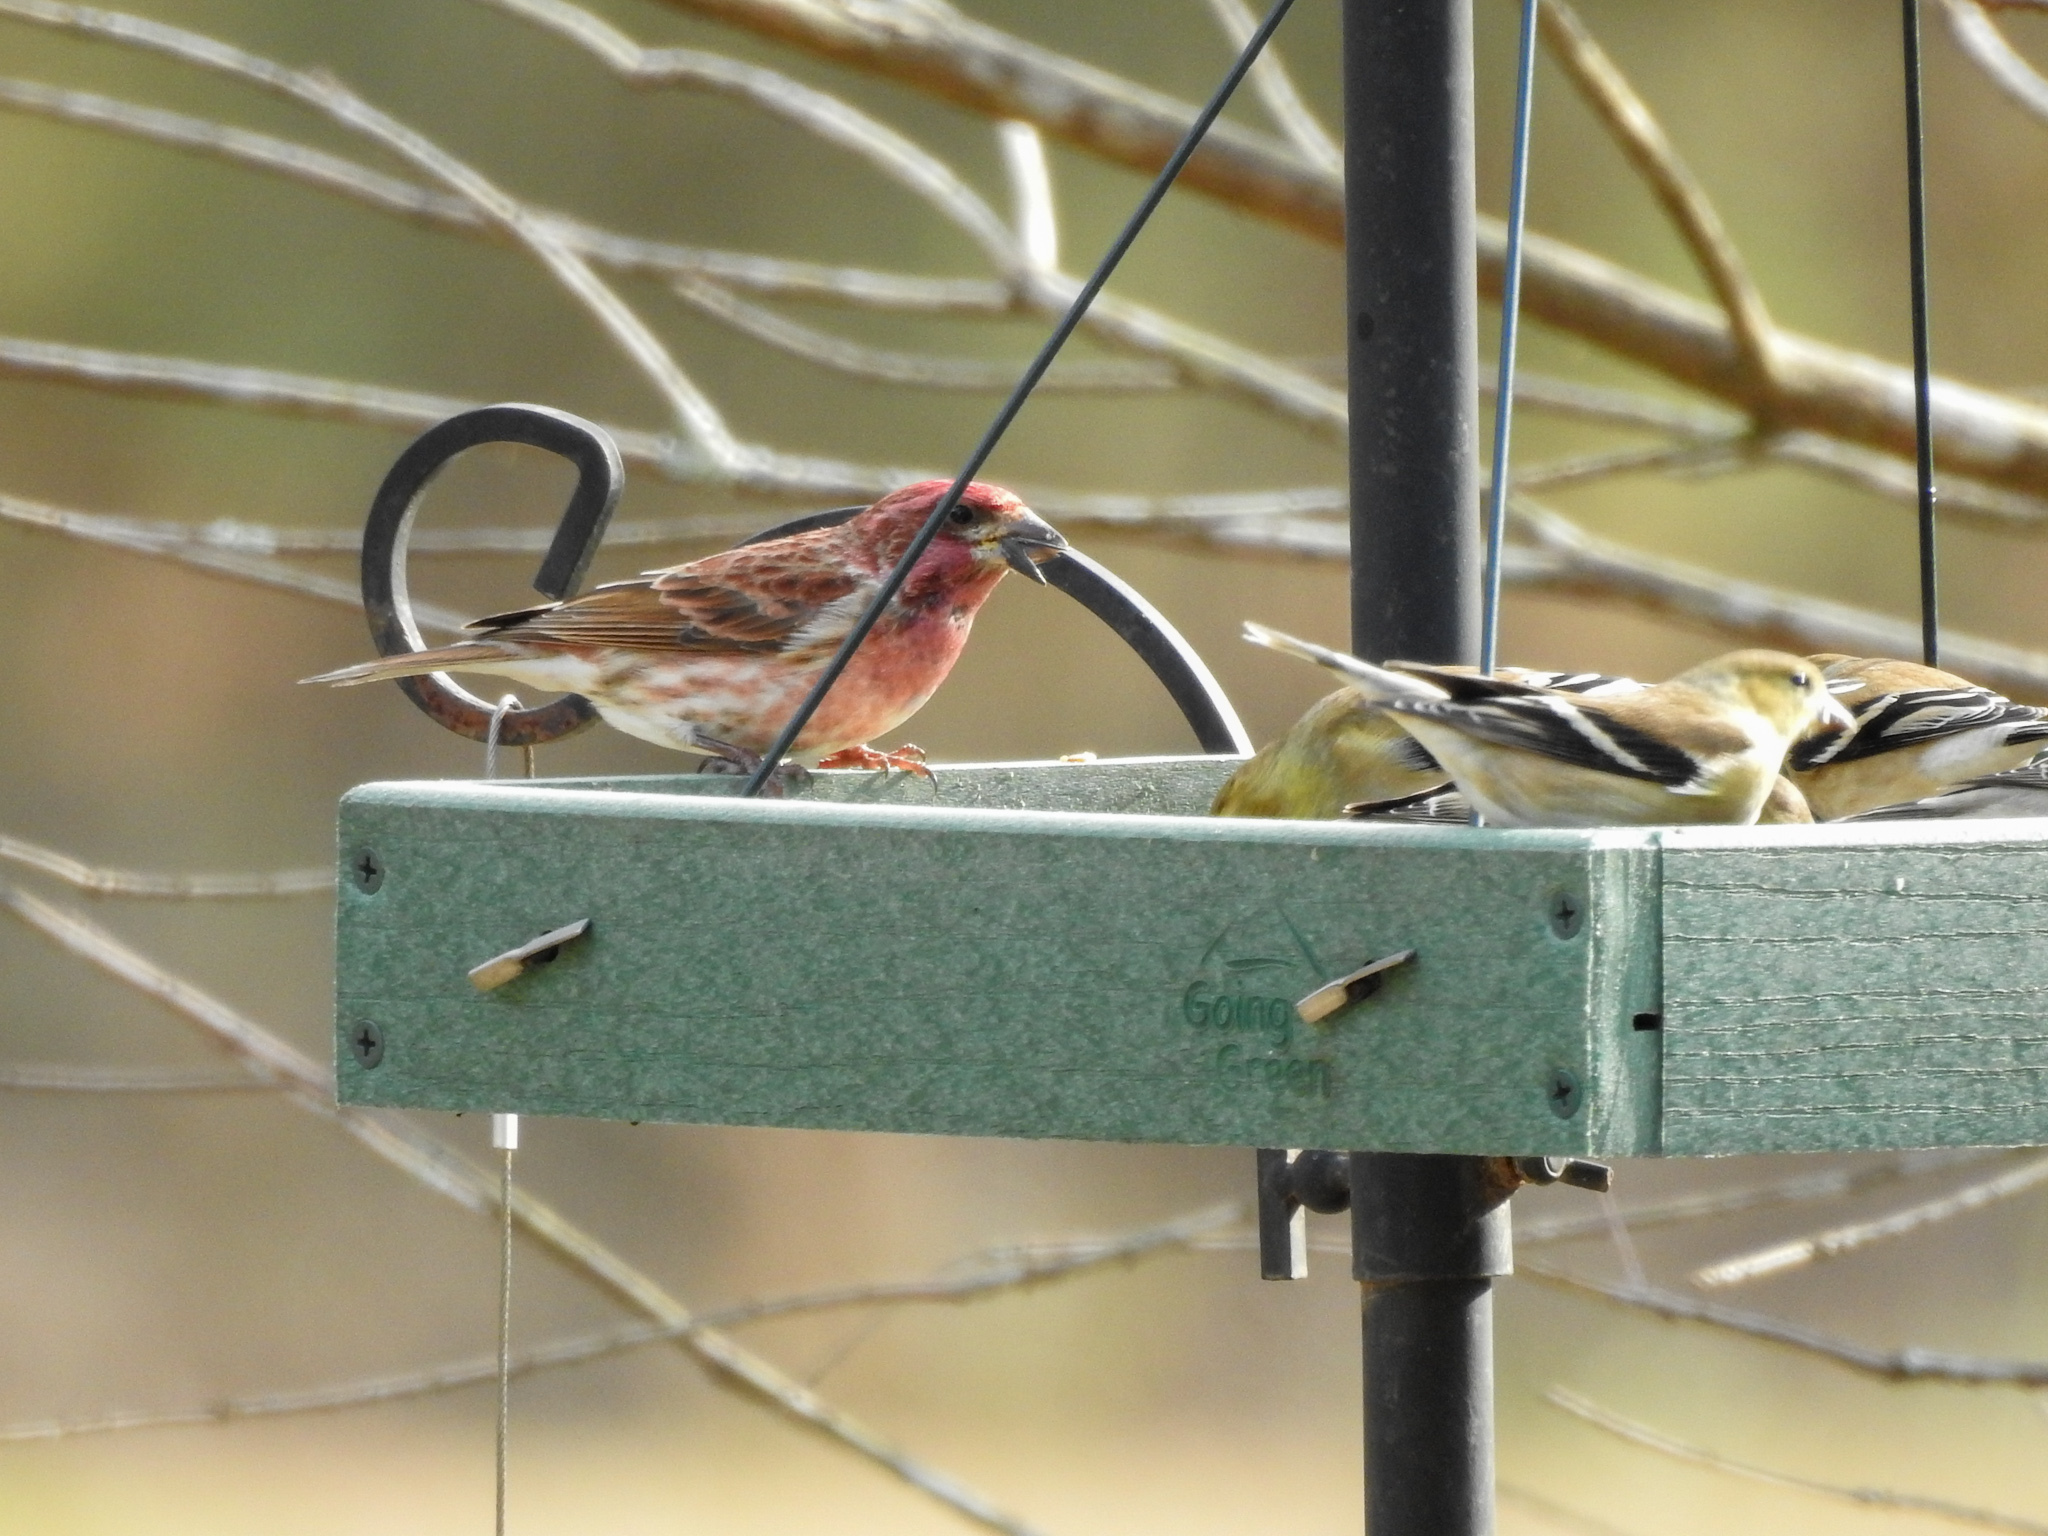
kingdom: Animalia
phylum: Chordata
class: Aves
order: Passeriformes
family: Fringillidae
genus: Spinus
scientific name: Spinus tristis
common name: American goldfinch
